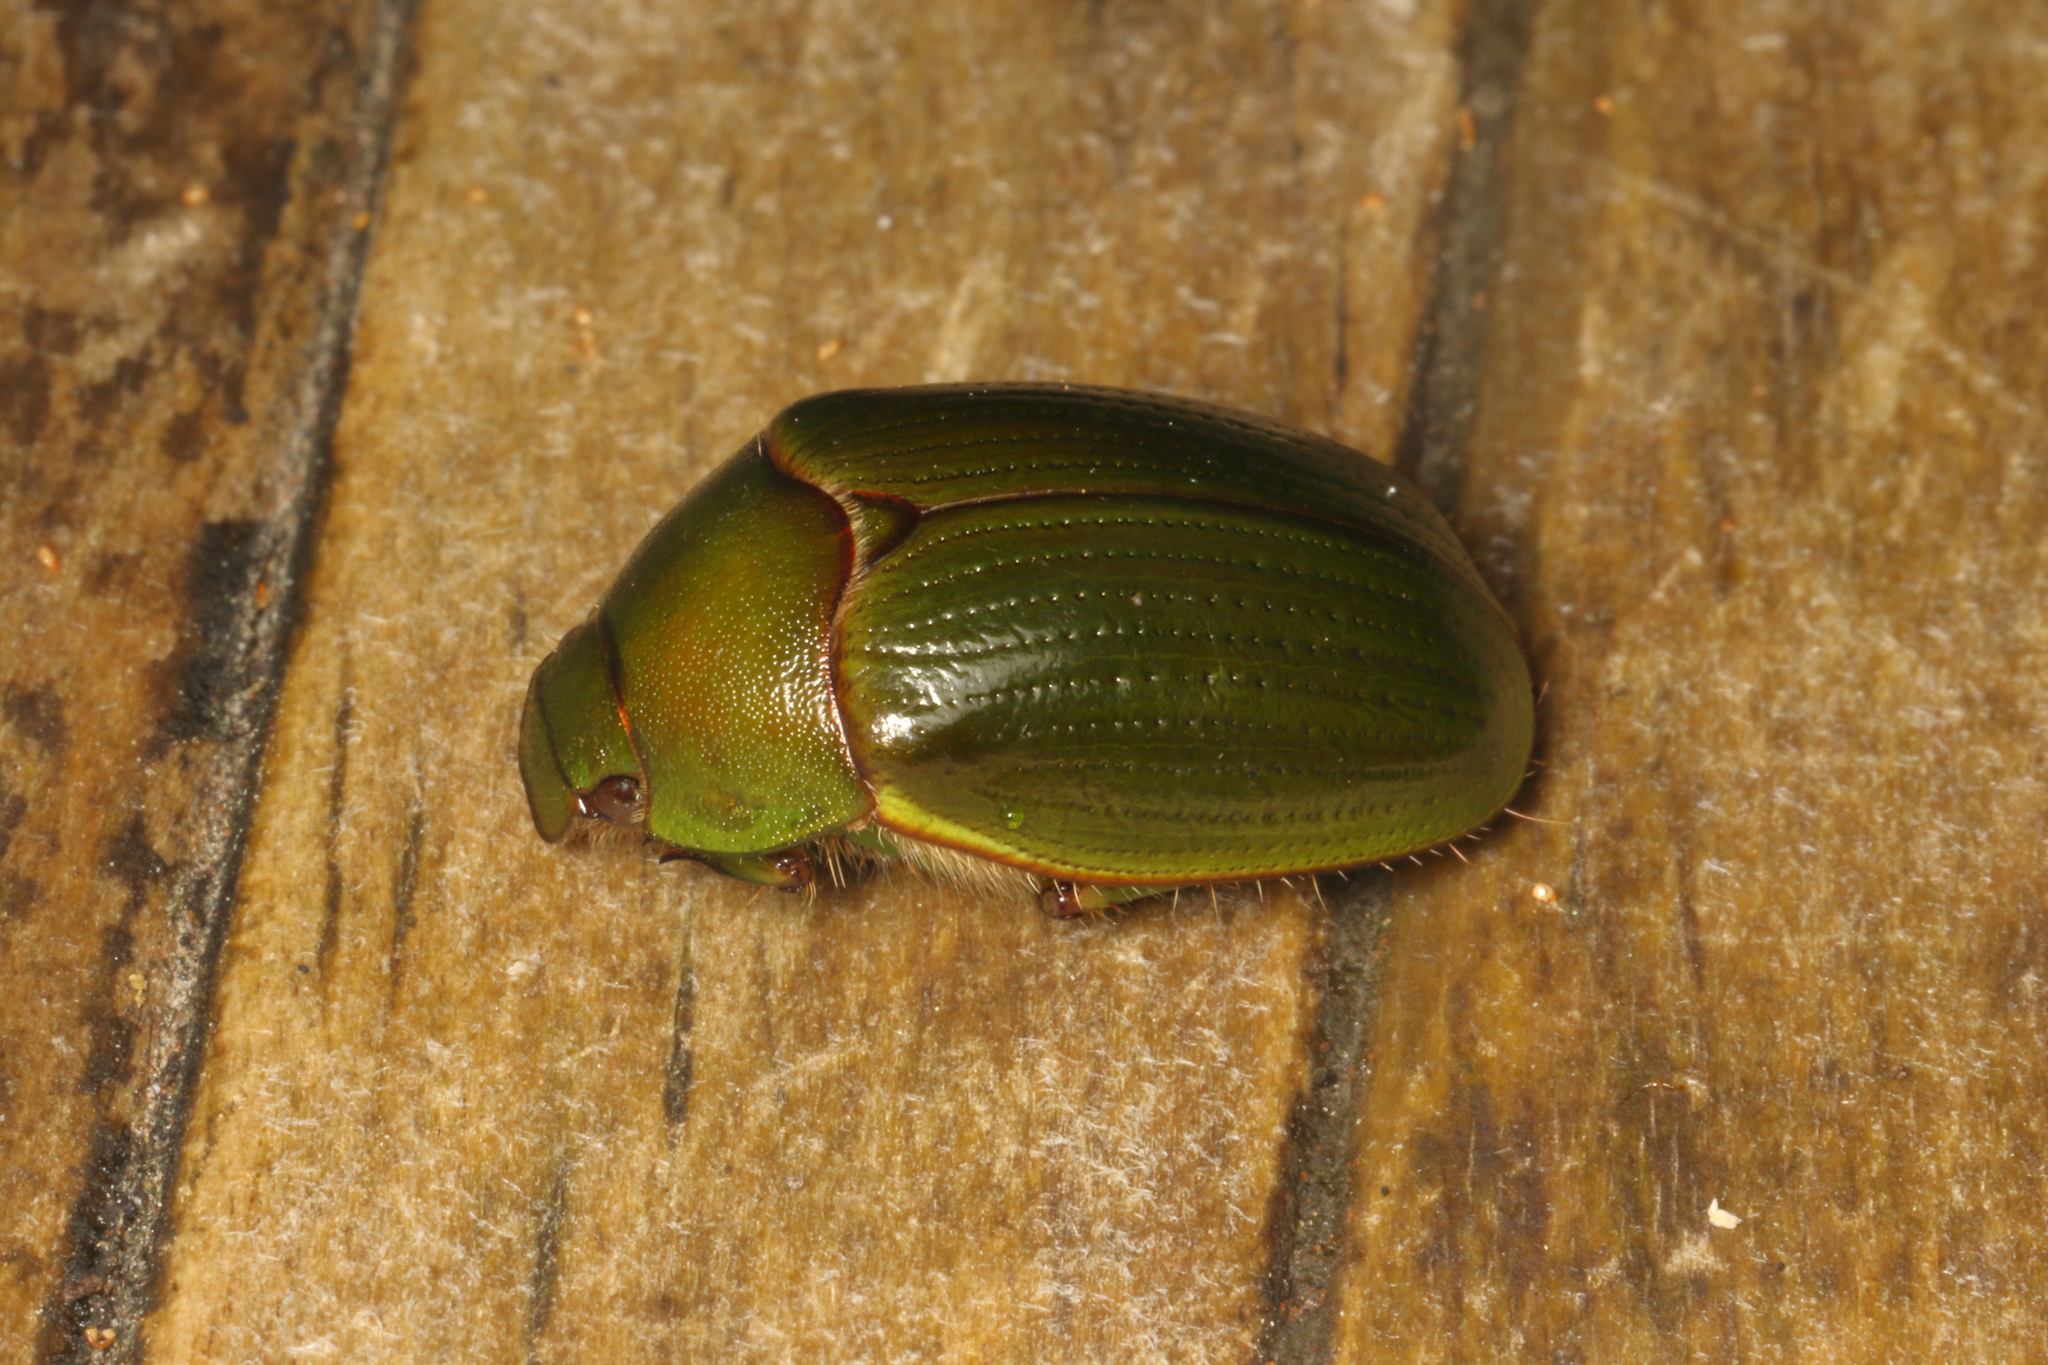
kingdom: Animalia
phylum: Arthropoda
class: Insecta
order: Coleoptera
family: Scarabaeidae
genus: Stethaspis
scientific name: Stethaspis prasinus
